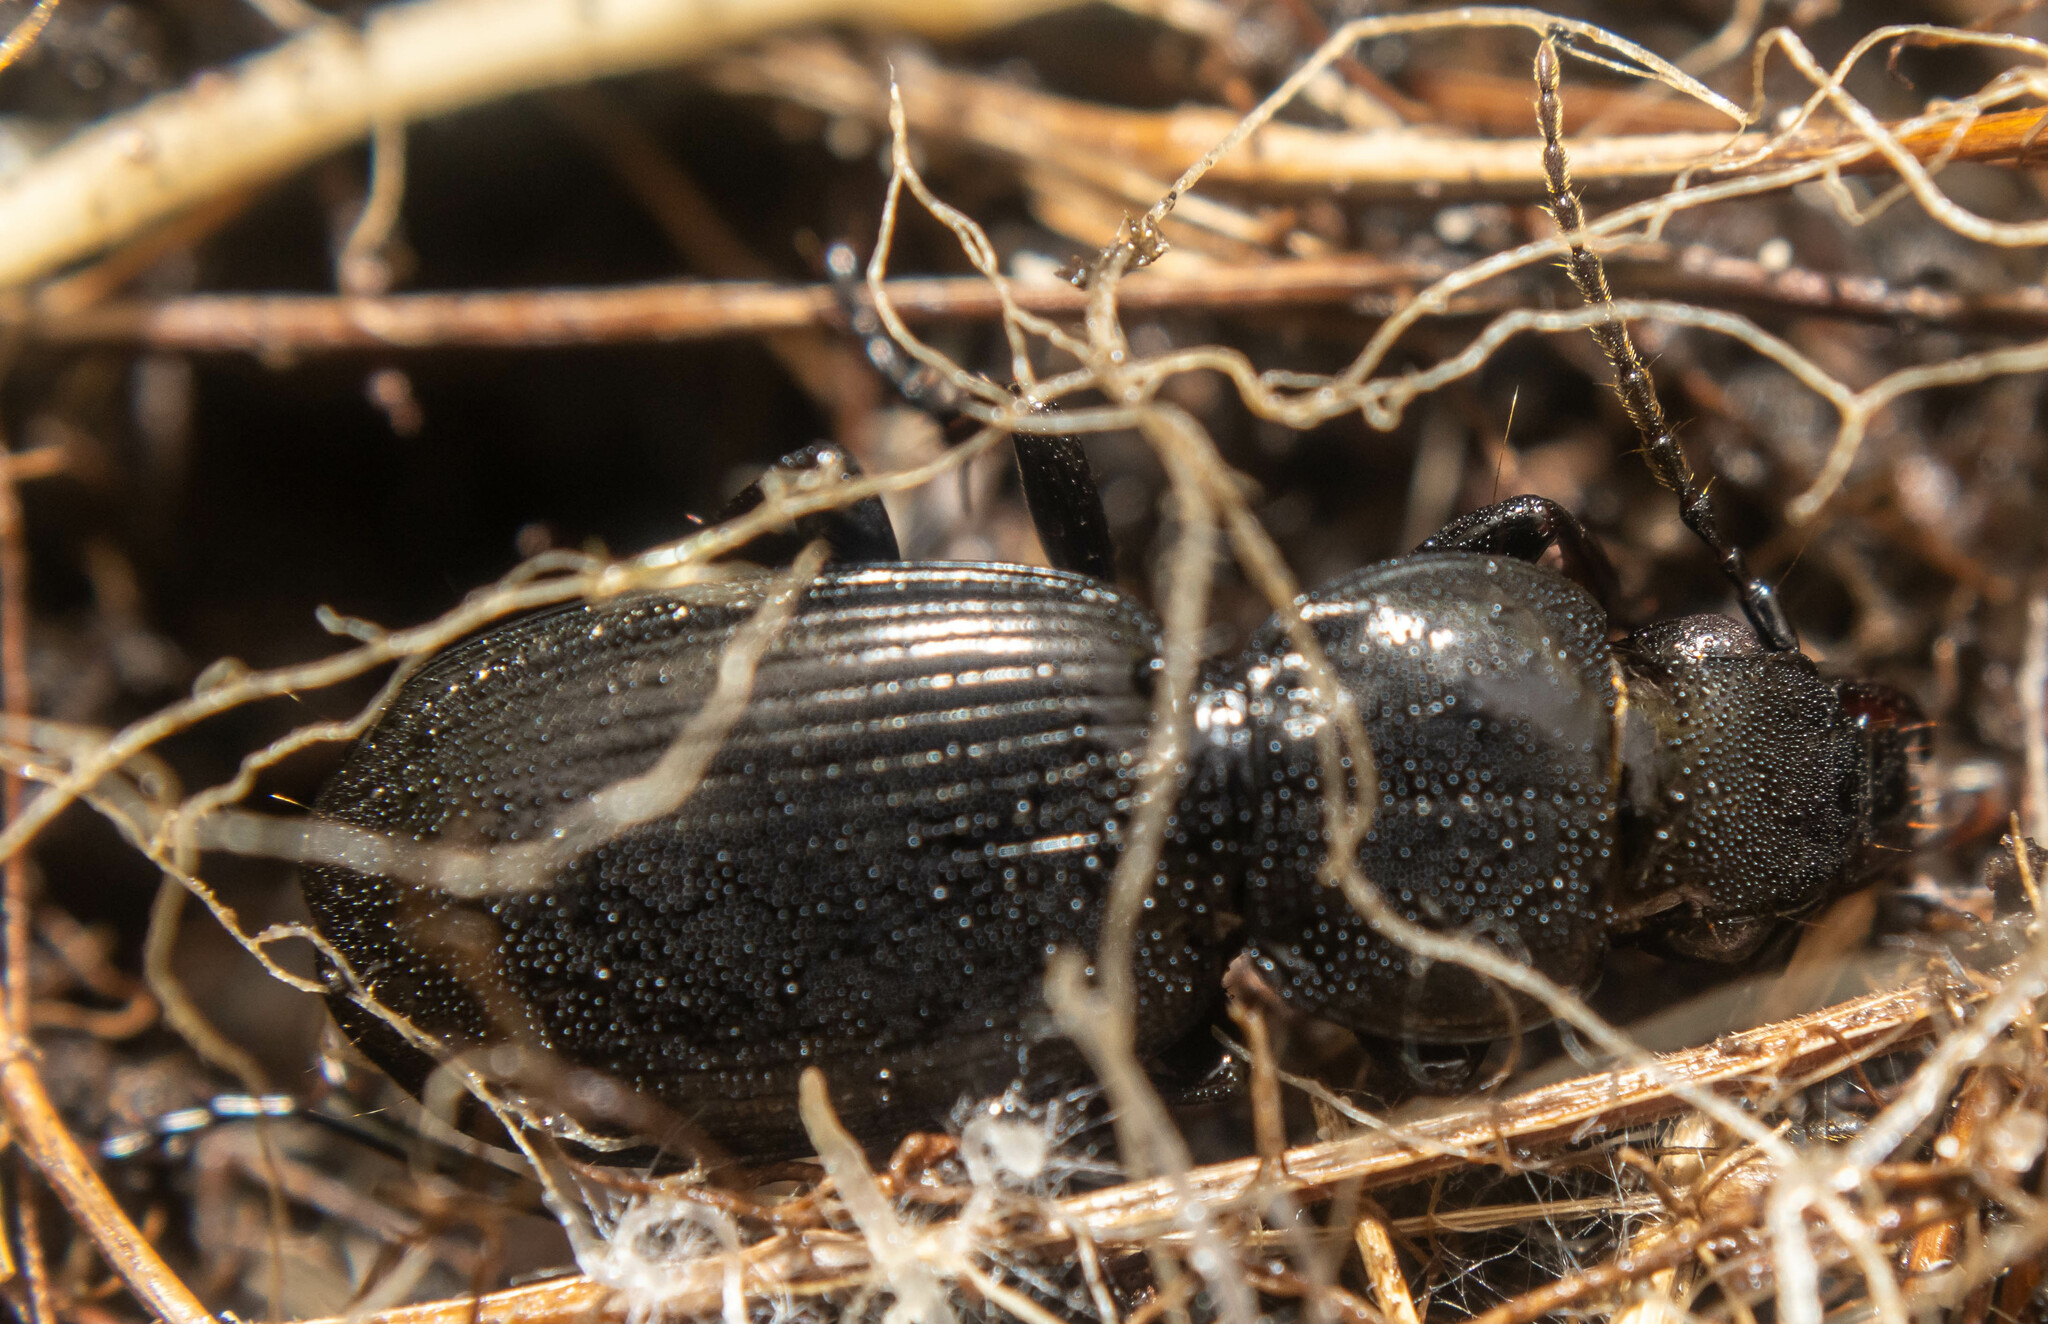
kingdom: Animalia
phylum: Arthropoda
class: Insecta
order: Coleoptera
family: Carabidae
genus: Pterostichus
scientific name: Pterostichus madidus
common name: Black clock
